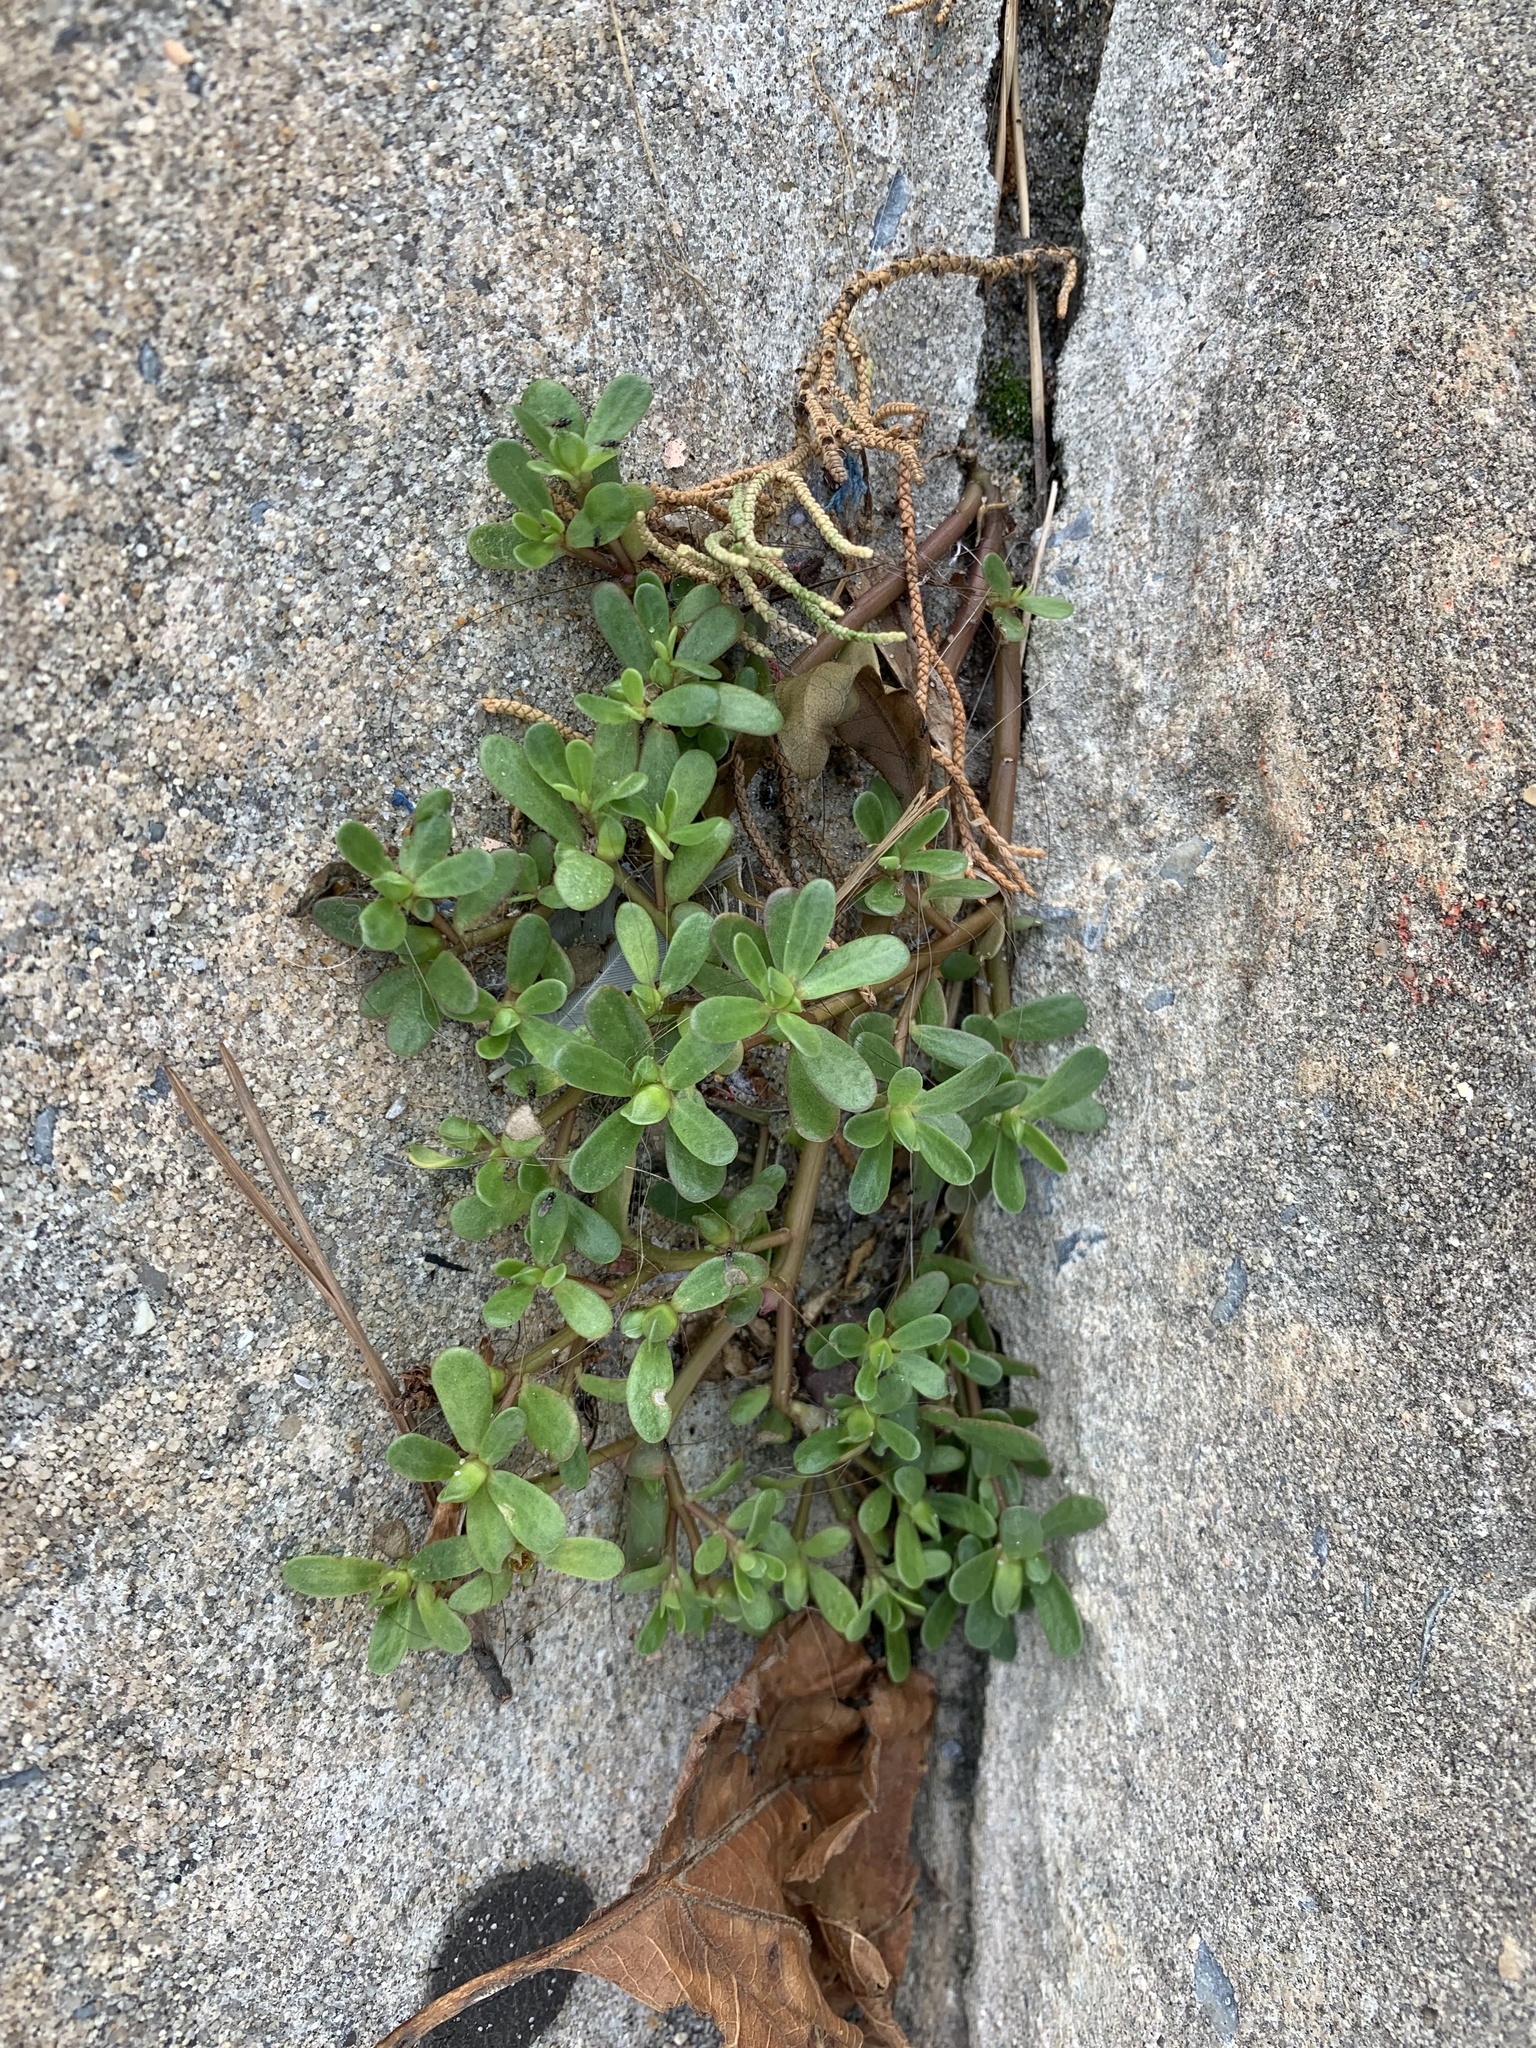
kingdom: Plantae
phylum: Tracheophyta
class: Magnoliopsida
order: Caryophyllales
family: Portulacaceae
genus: Portulaca
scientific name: Portulaca oleracea
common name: Common purslane
